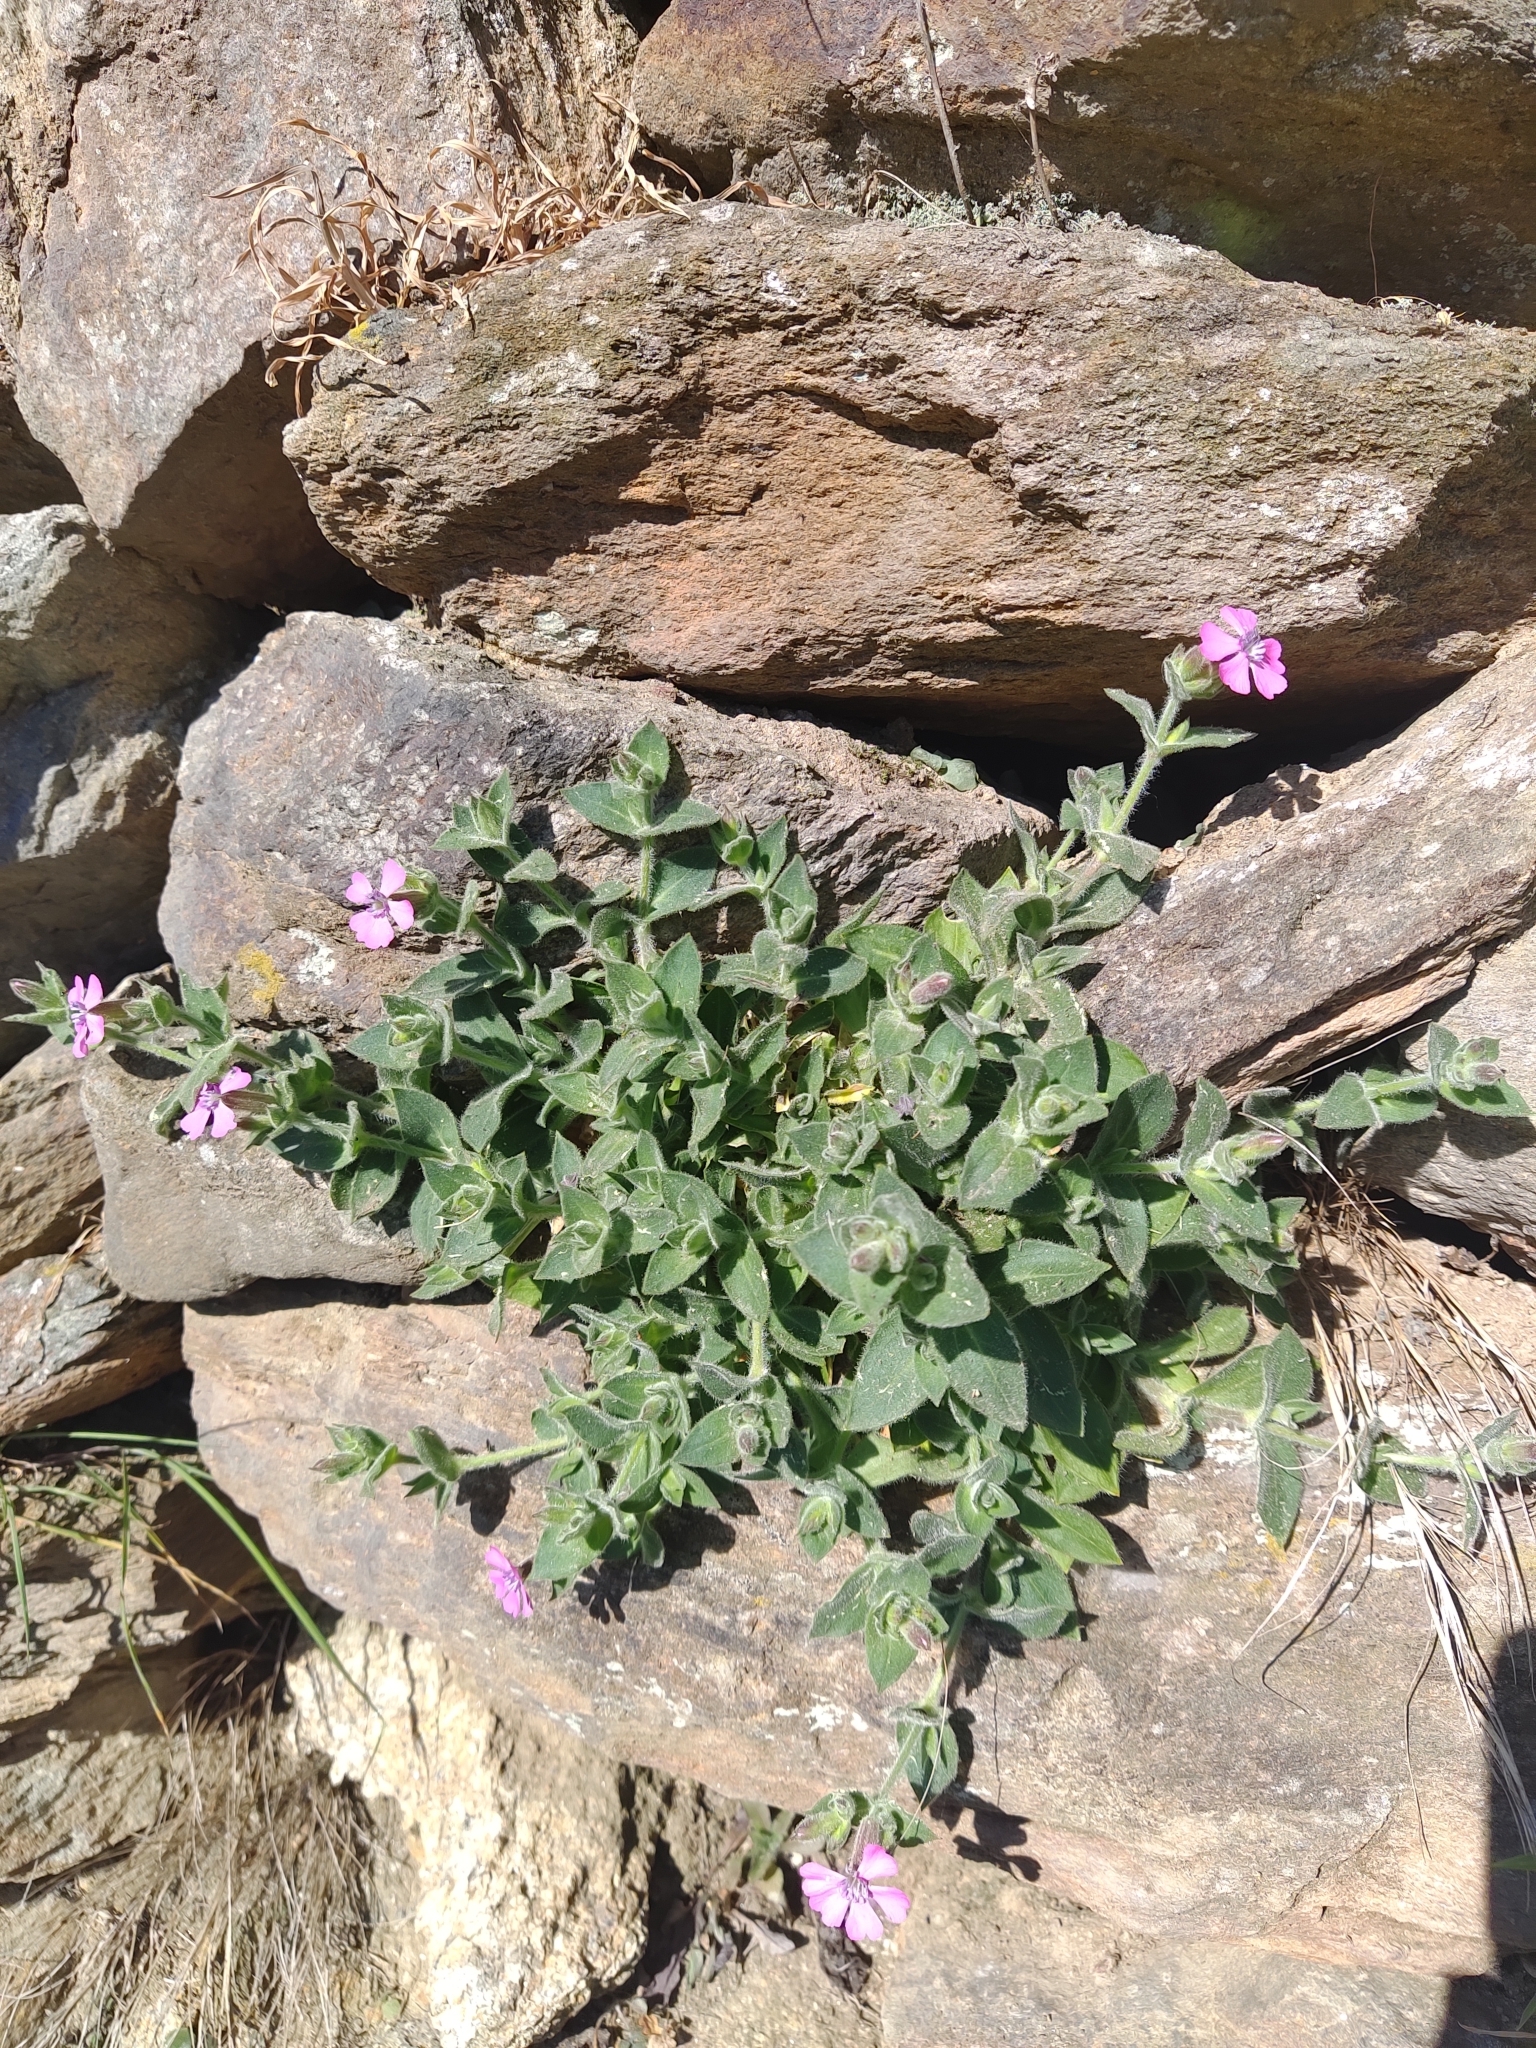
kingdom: Plantae
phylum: Tracheophyta
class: Magnoliopsida
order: Caryophyllales
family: Caryophyllaceae
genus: Silene
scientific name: Silene acutifolia
